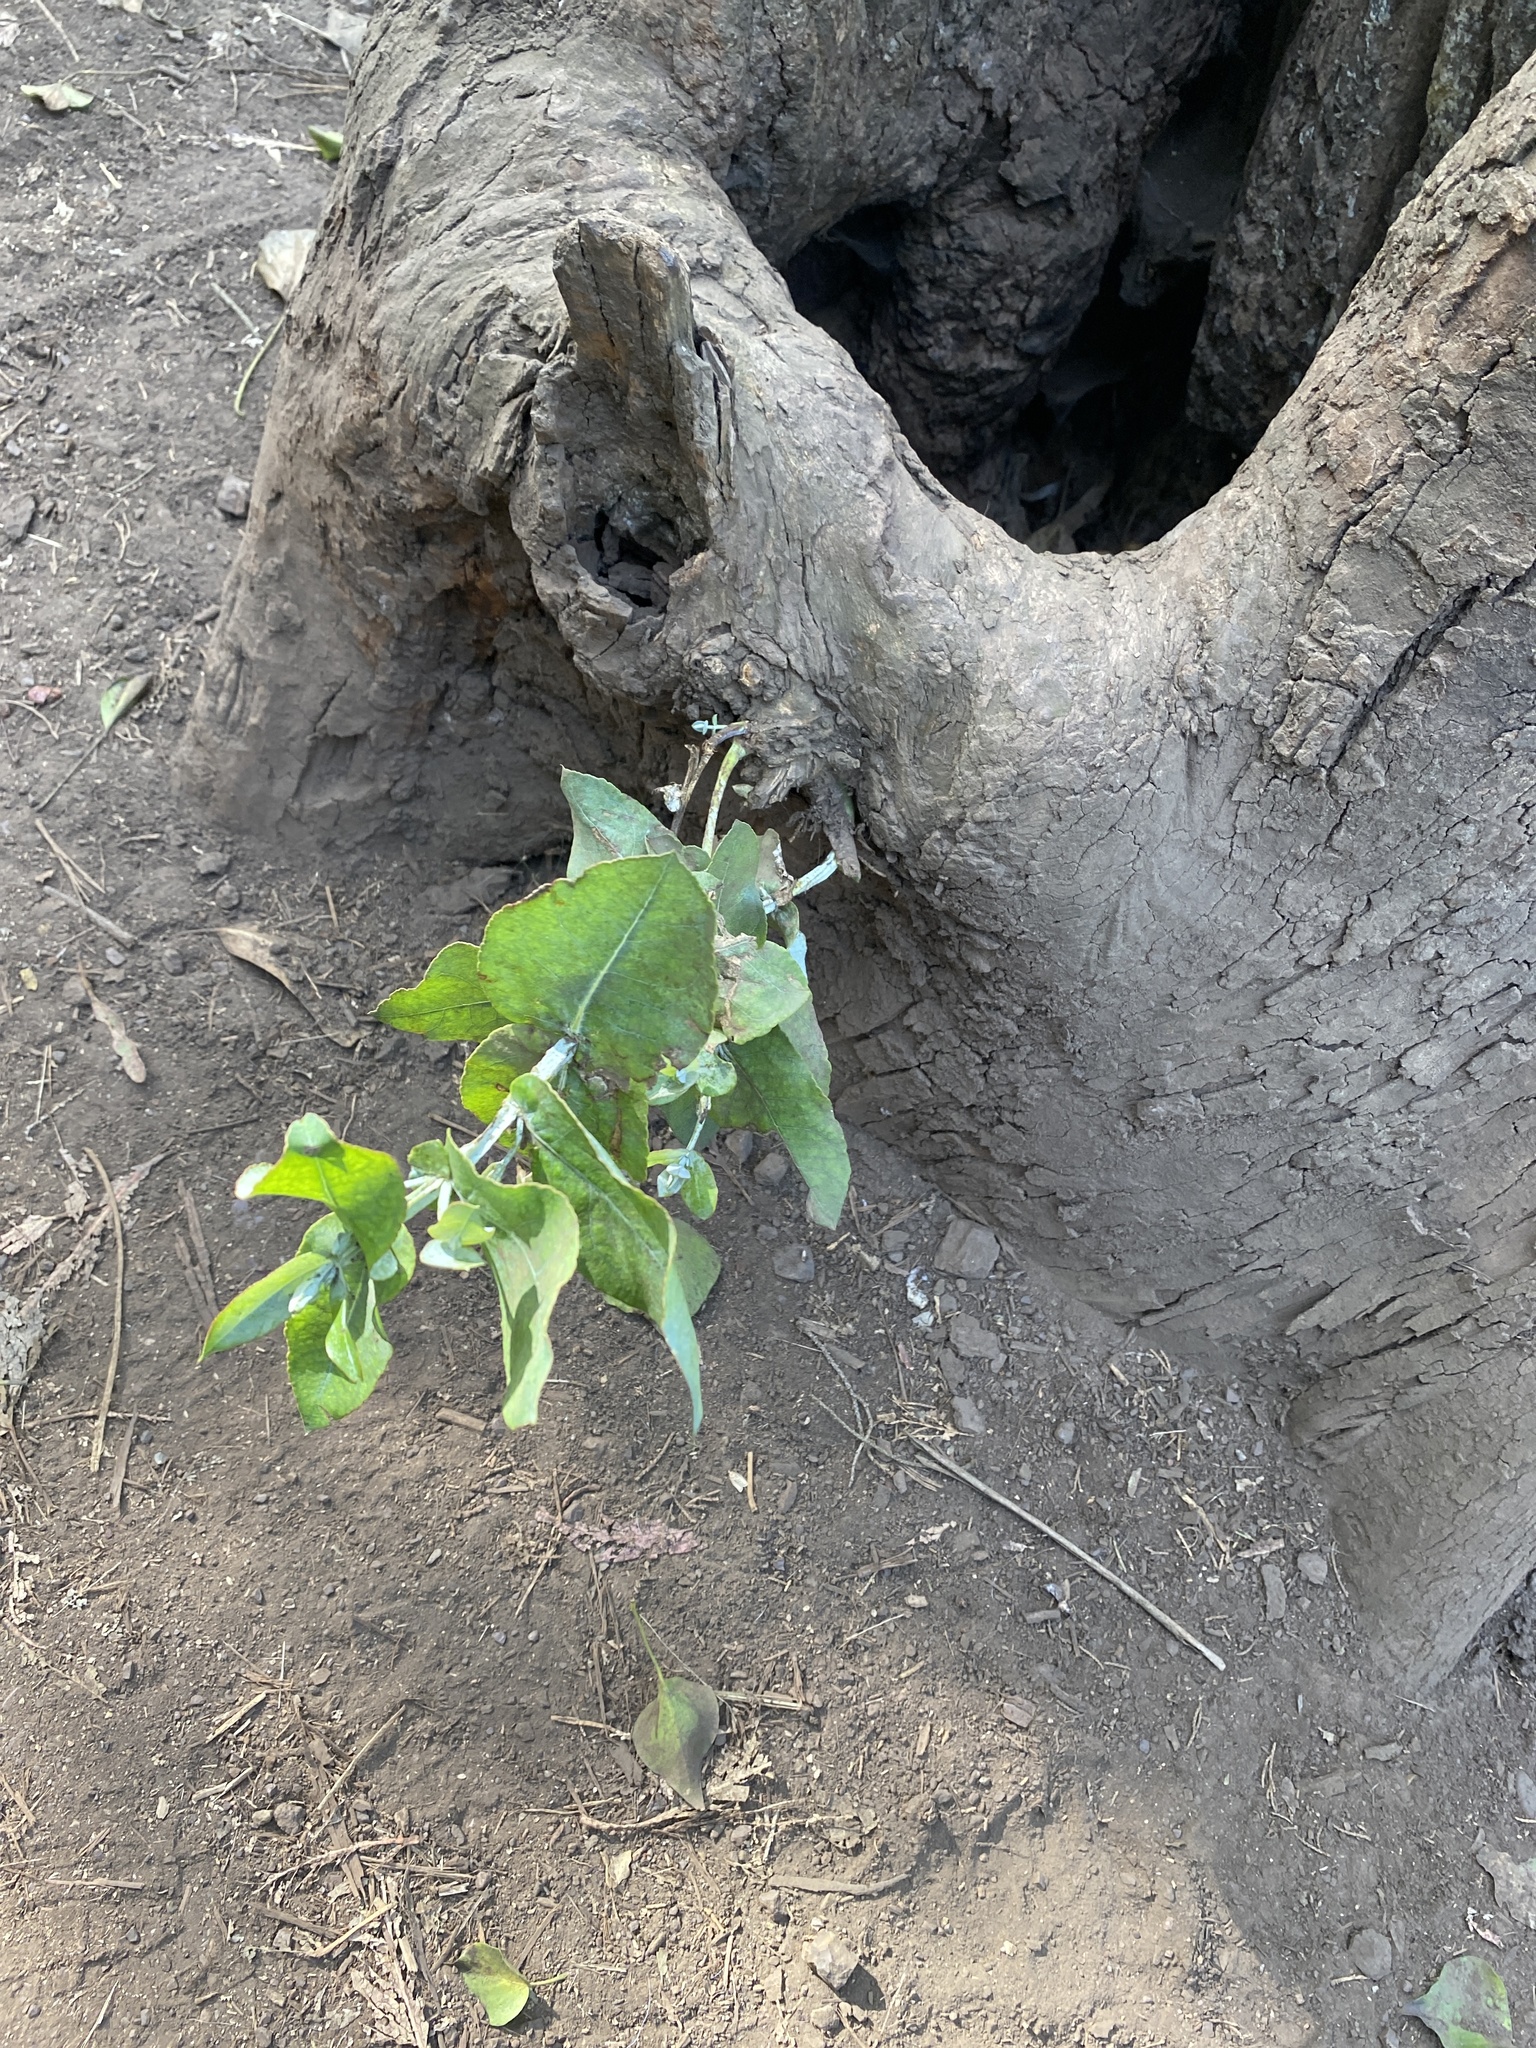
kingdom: Plantae
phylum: Tracheophyta
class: Magnoliopsida
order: Myrtales
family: Myrtaceae
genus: Eucalyptus
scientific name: Eucalyptus globulus
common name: Southern blue-gum
